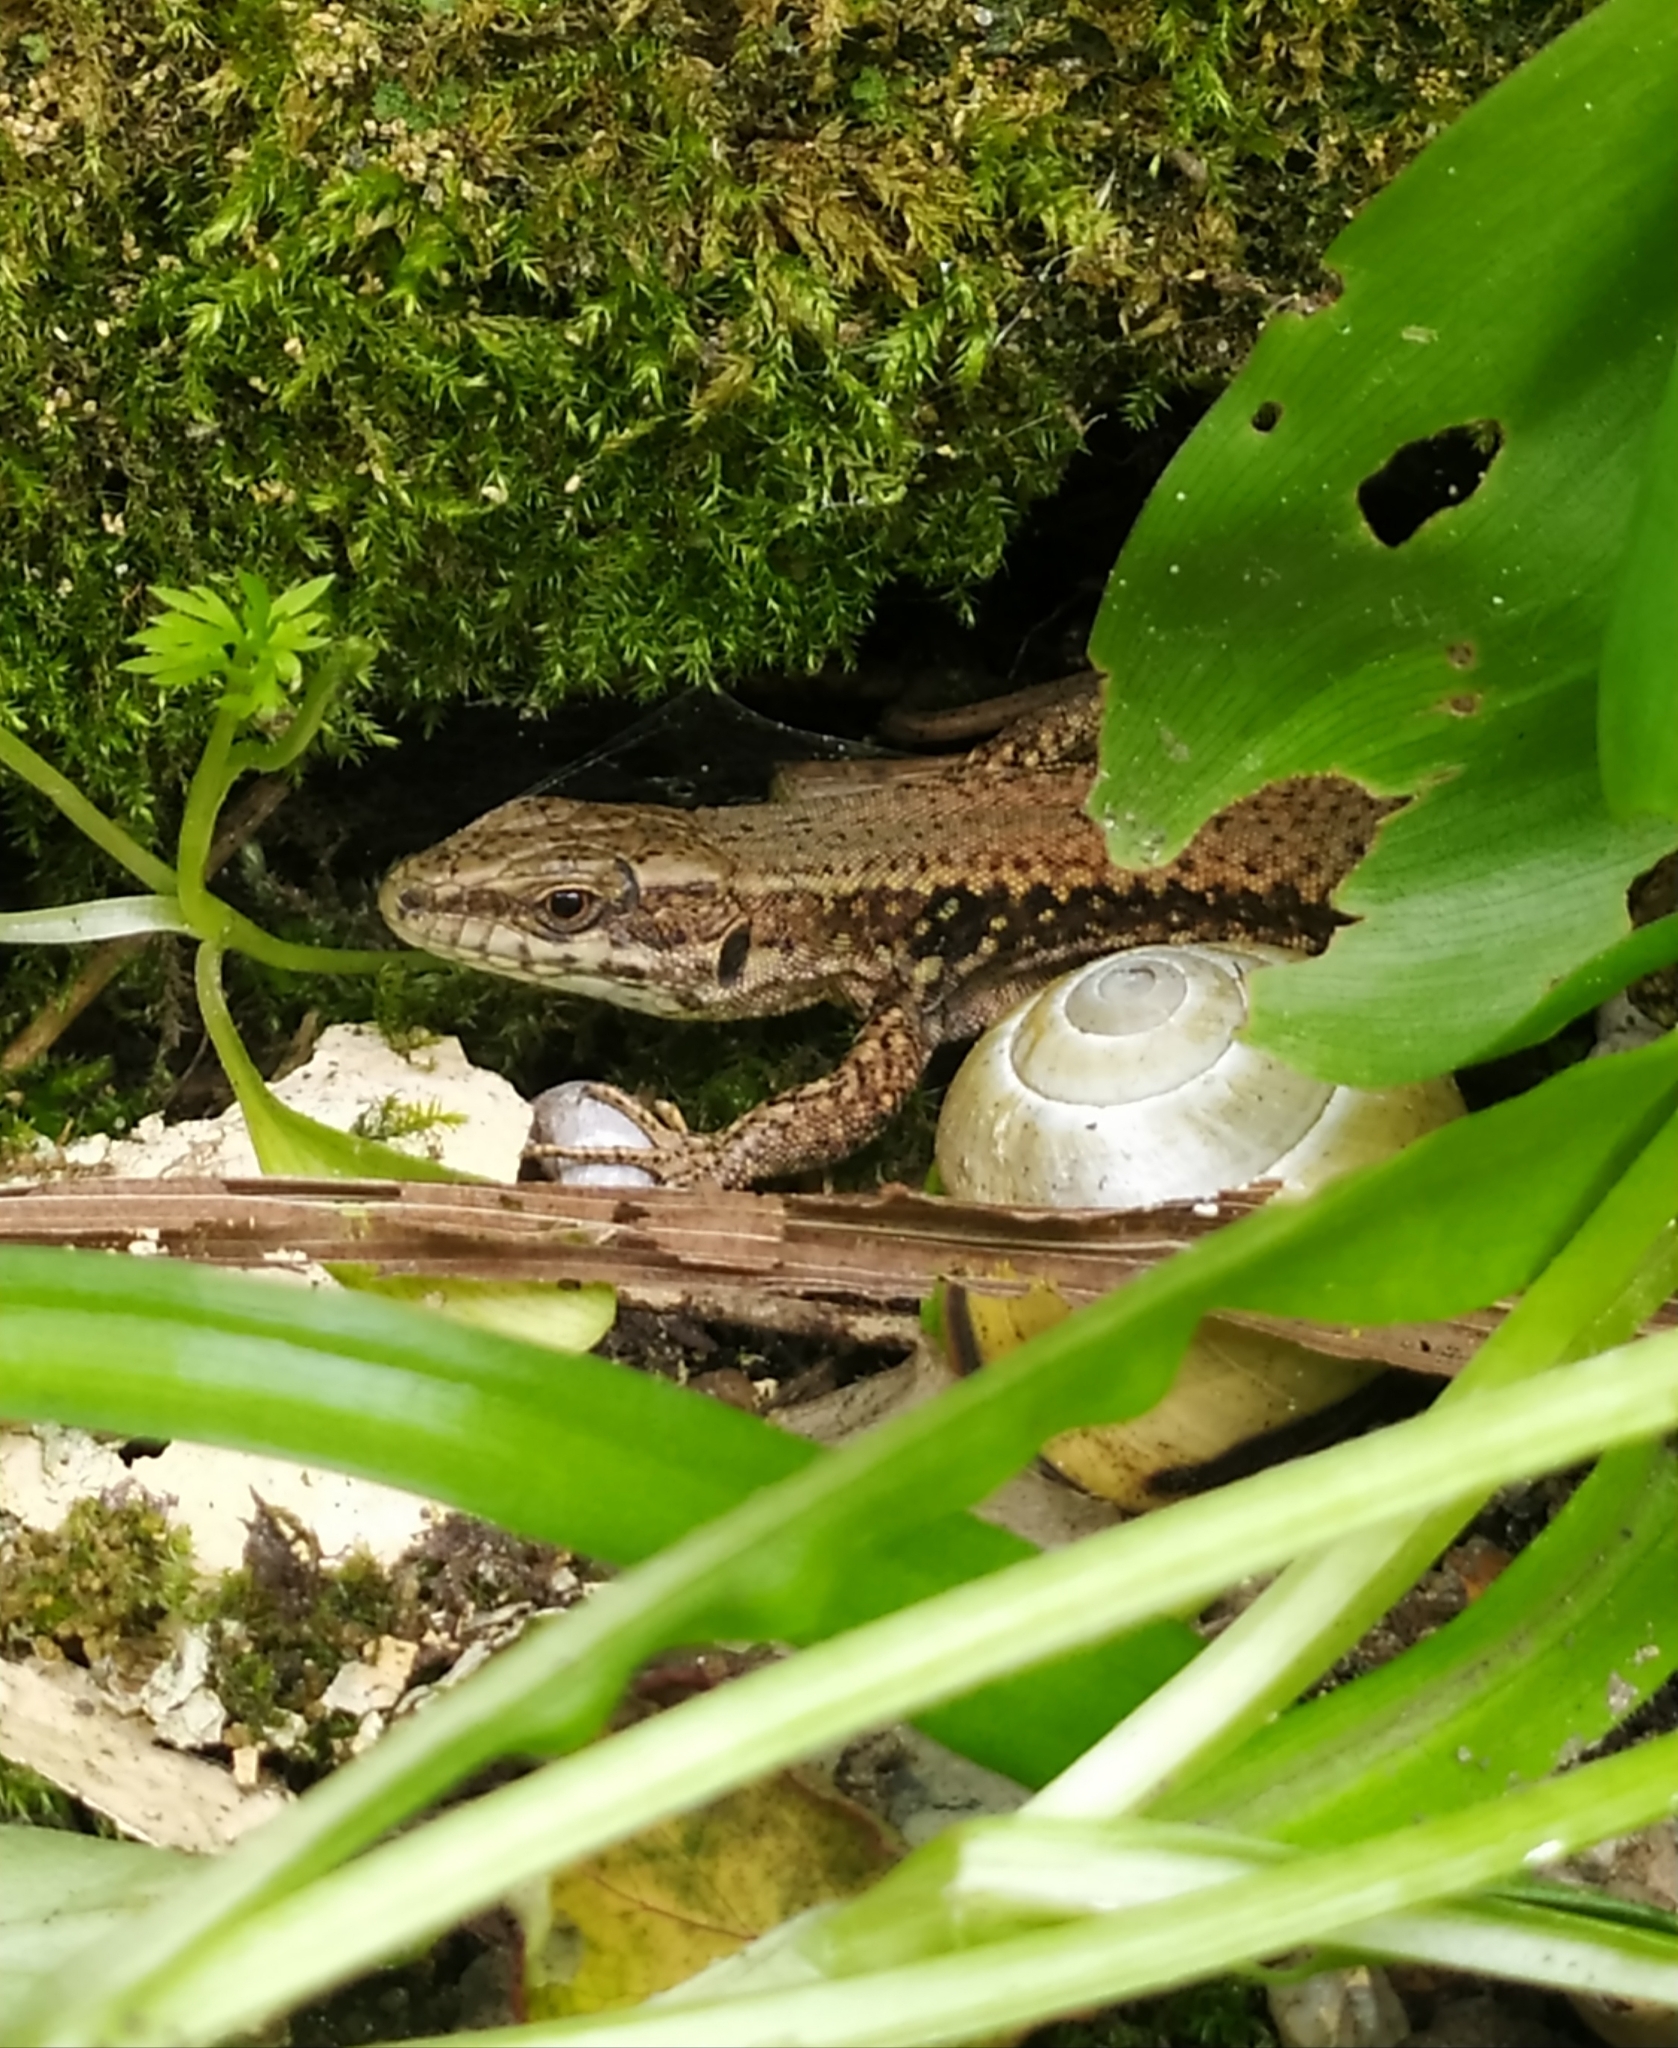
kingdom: Animalia
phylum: Chordata
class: Squamata
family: Lacertidae
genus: Podarcis
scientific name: Podarcis muralis
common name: Common wall lizard
